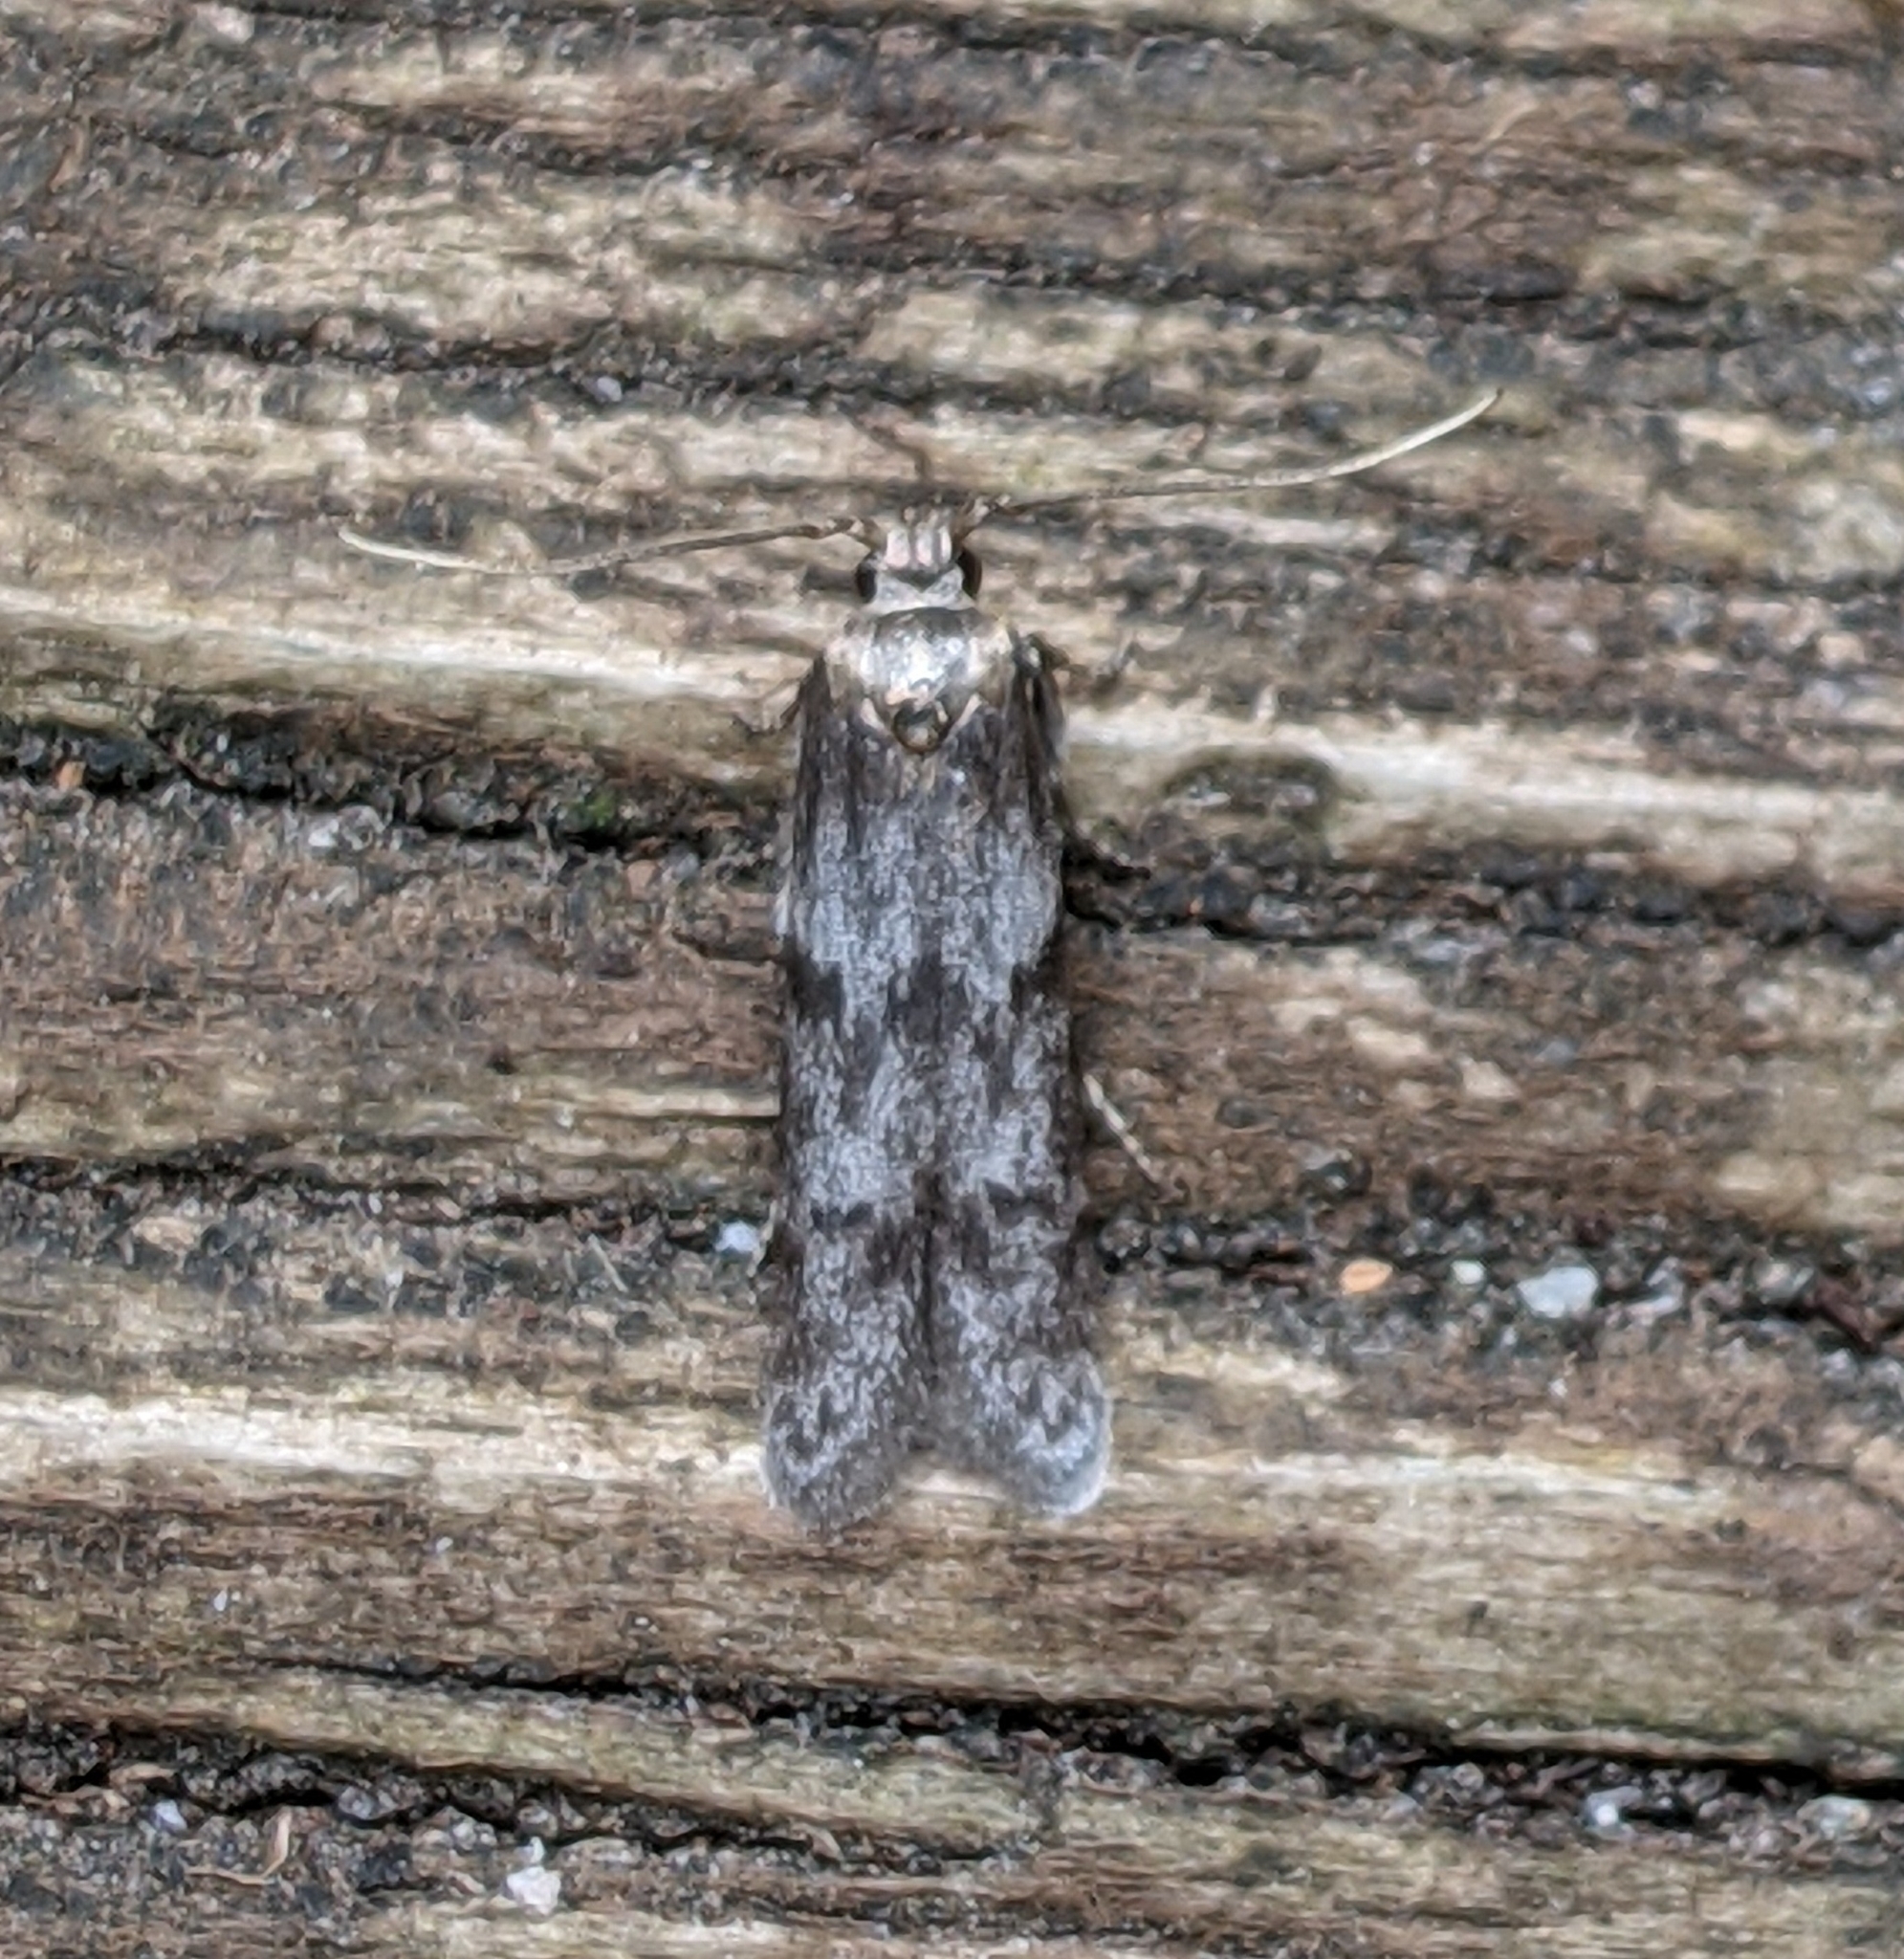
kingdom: Animalia
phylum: Arthropoda
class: Insecta
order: Lepidoptera
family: Blastobasidae
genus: Asaphocrita
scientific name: Asaphocrita aphidiella
